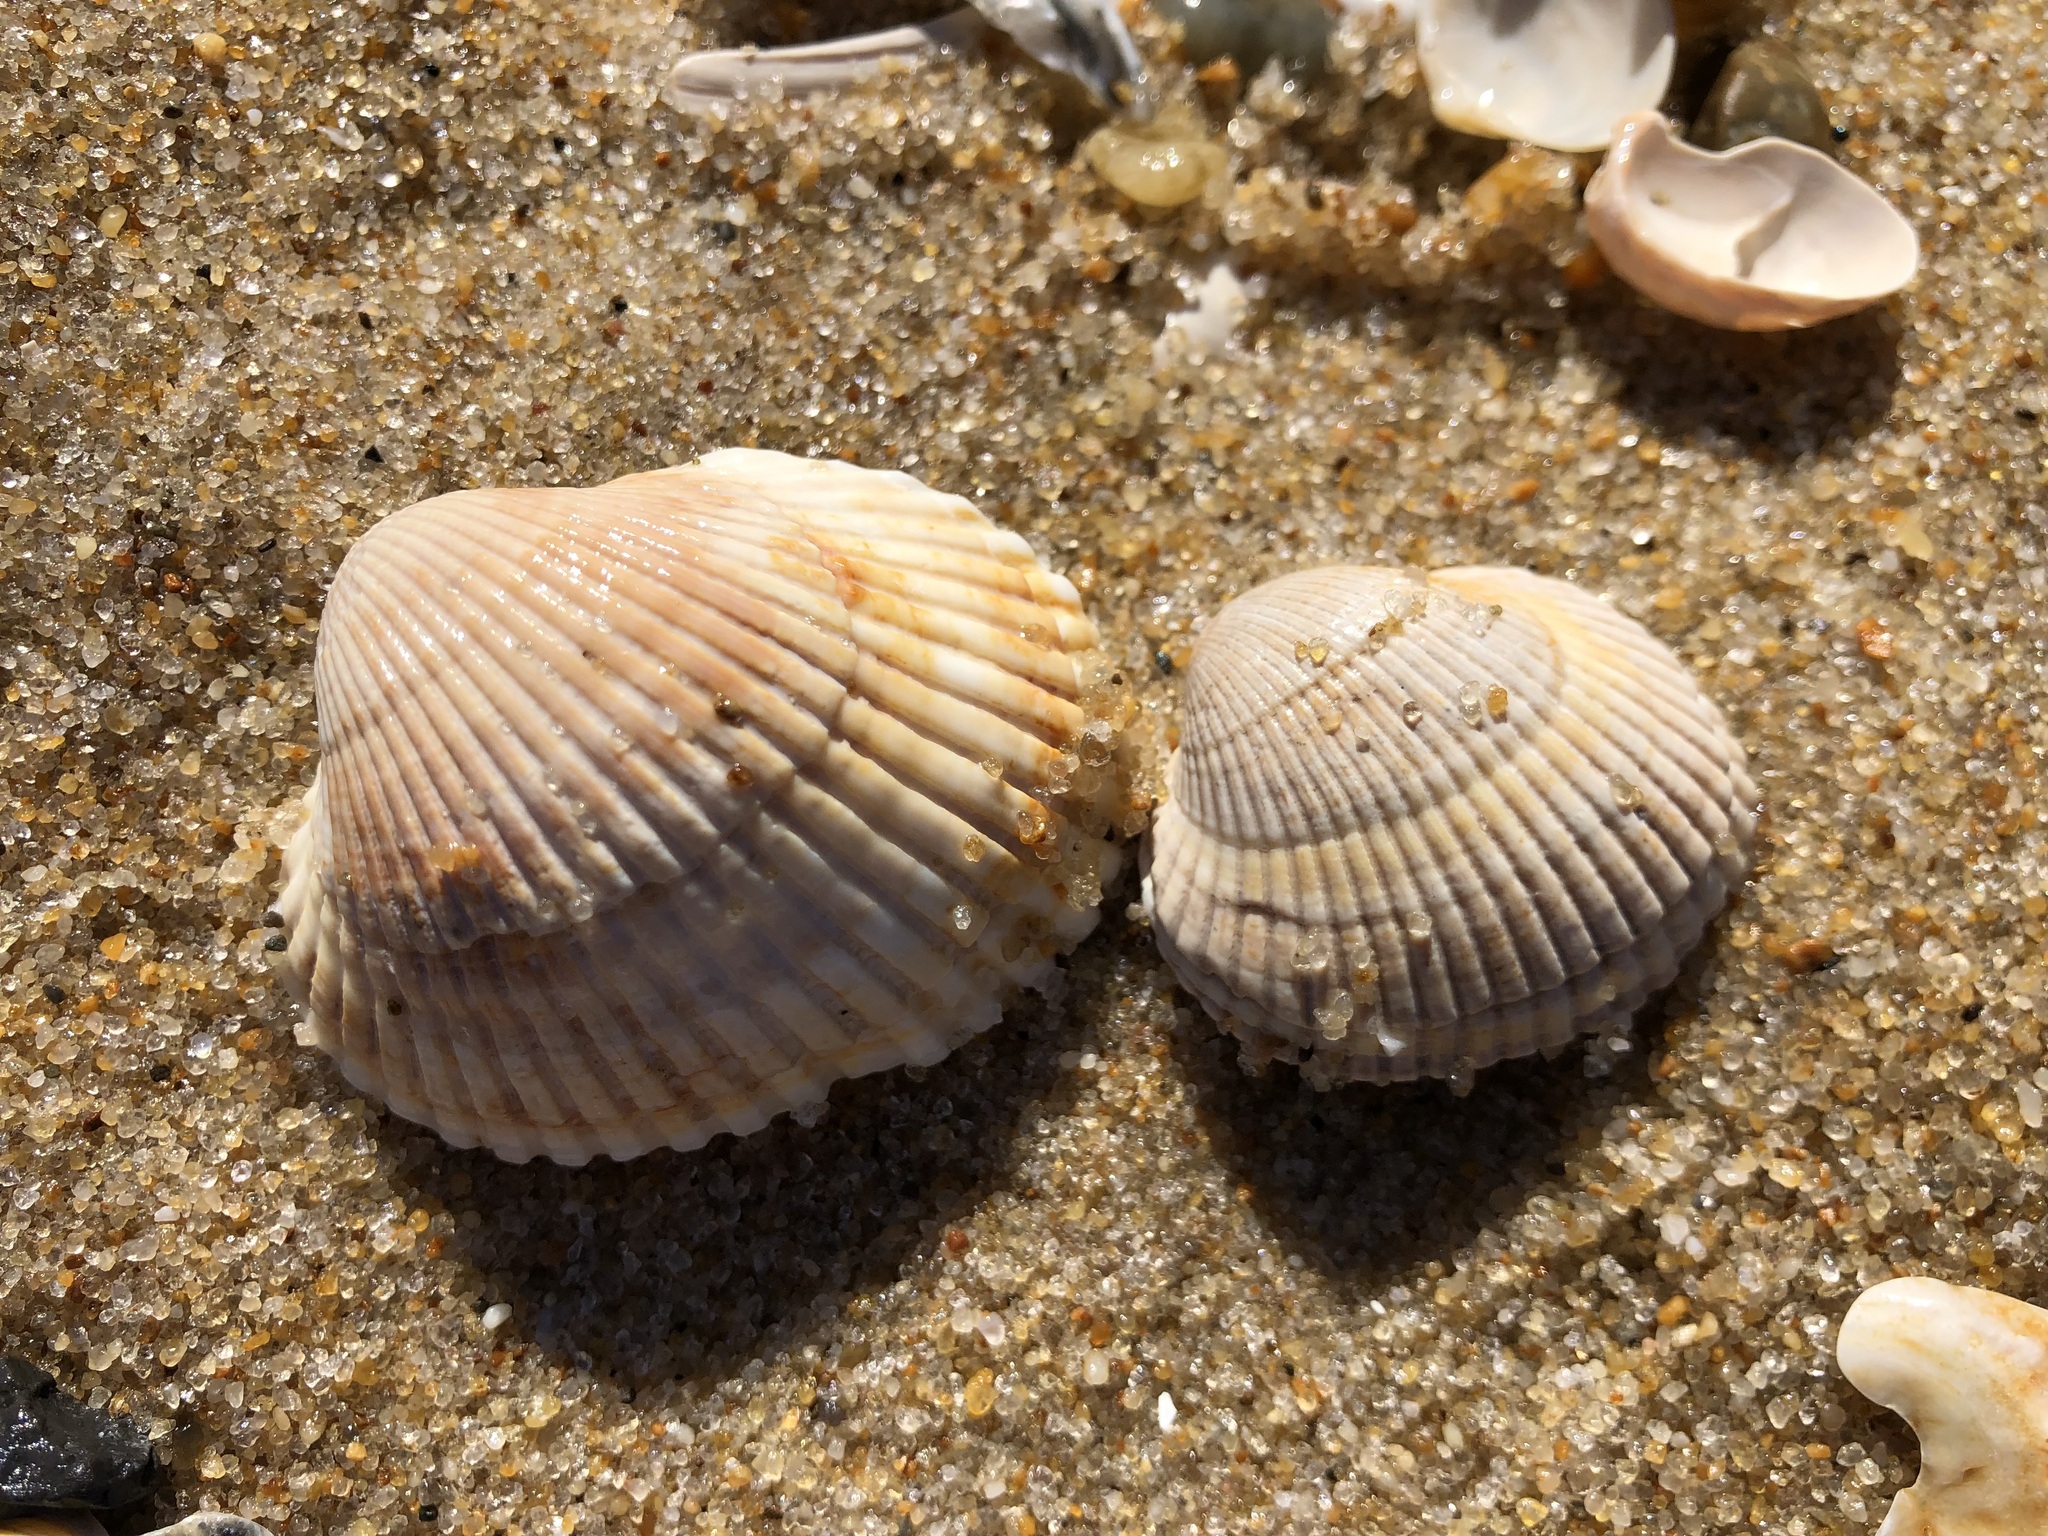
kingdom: Animalia
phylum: Mollusca
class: Bivalvia
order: Arcida
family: Arcidae
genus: Lunarca
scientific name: Lunarca ovalis
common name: Blood ark
